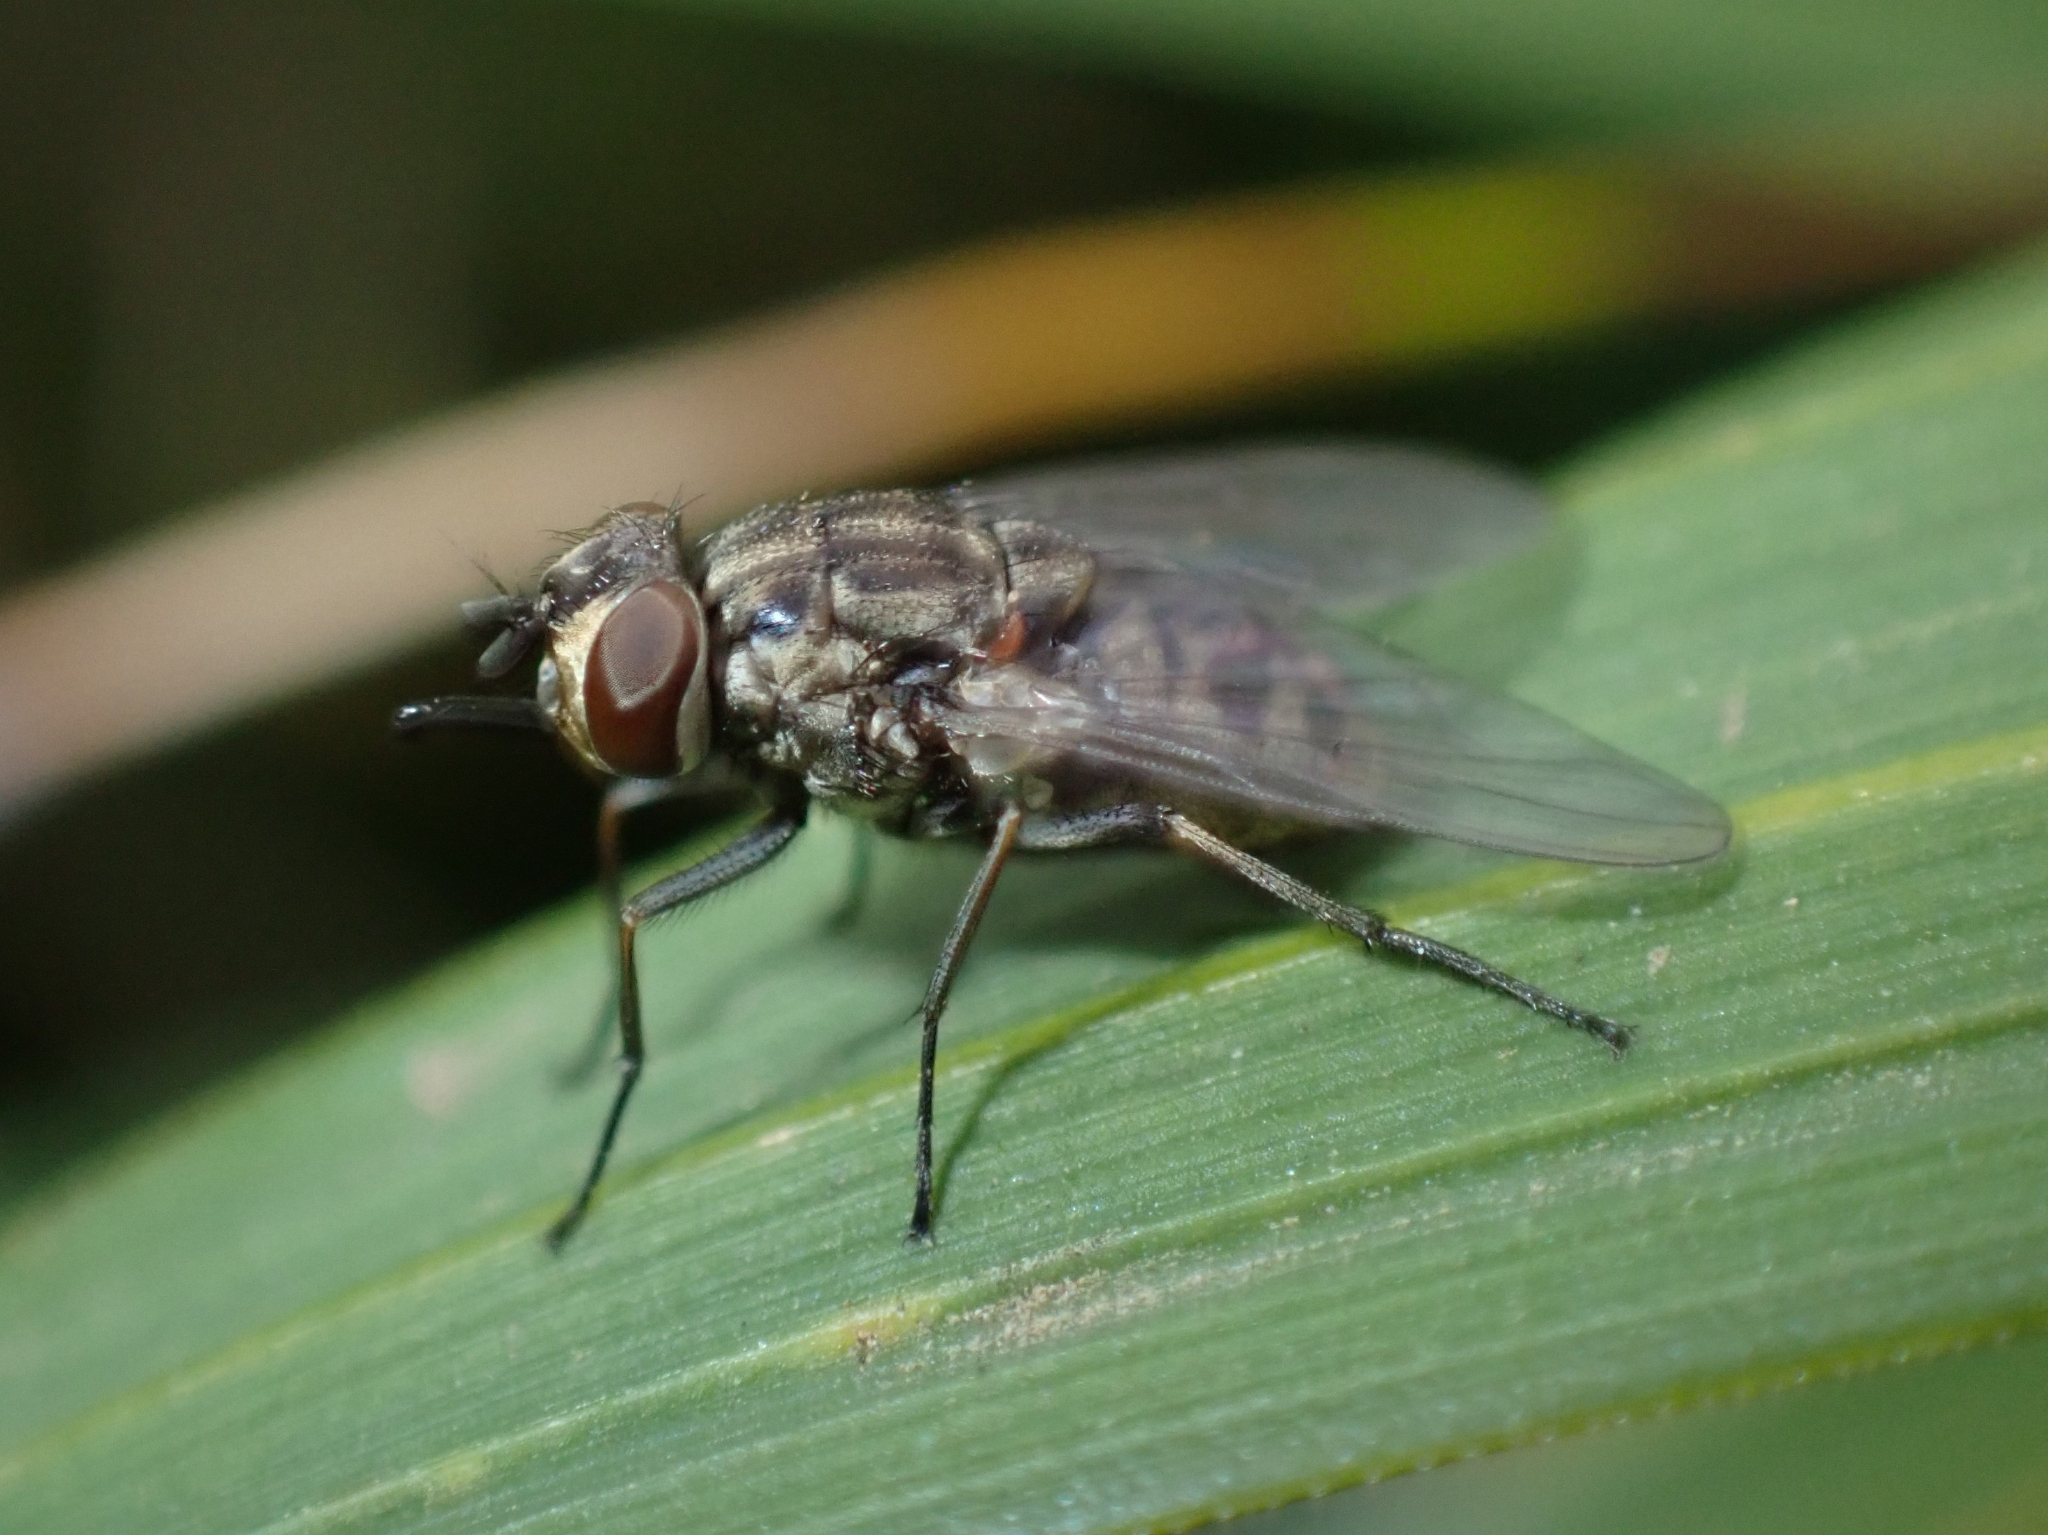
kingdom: Animalia
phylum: Arthropoda
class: Insecta
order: Diptera
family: Muscidae
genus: Stomoxys
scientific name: Stomoxys calcitrans
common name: Stable fly
